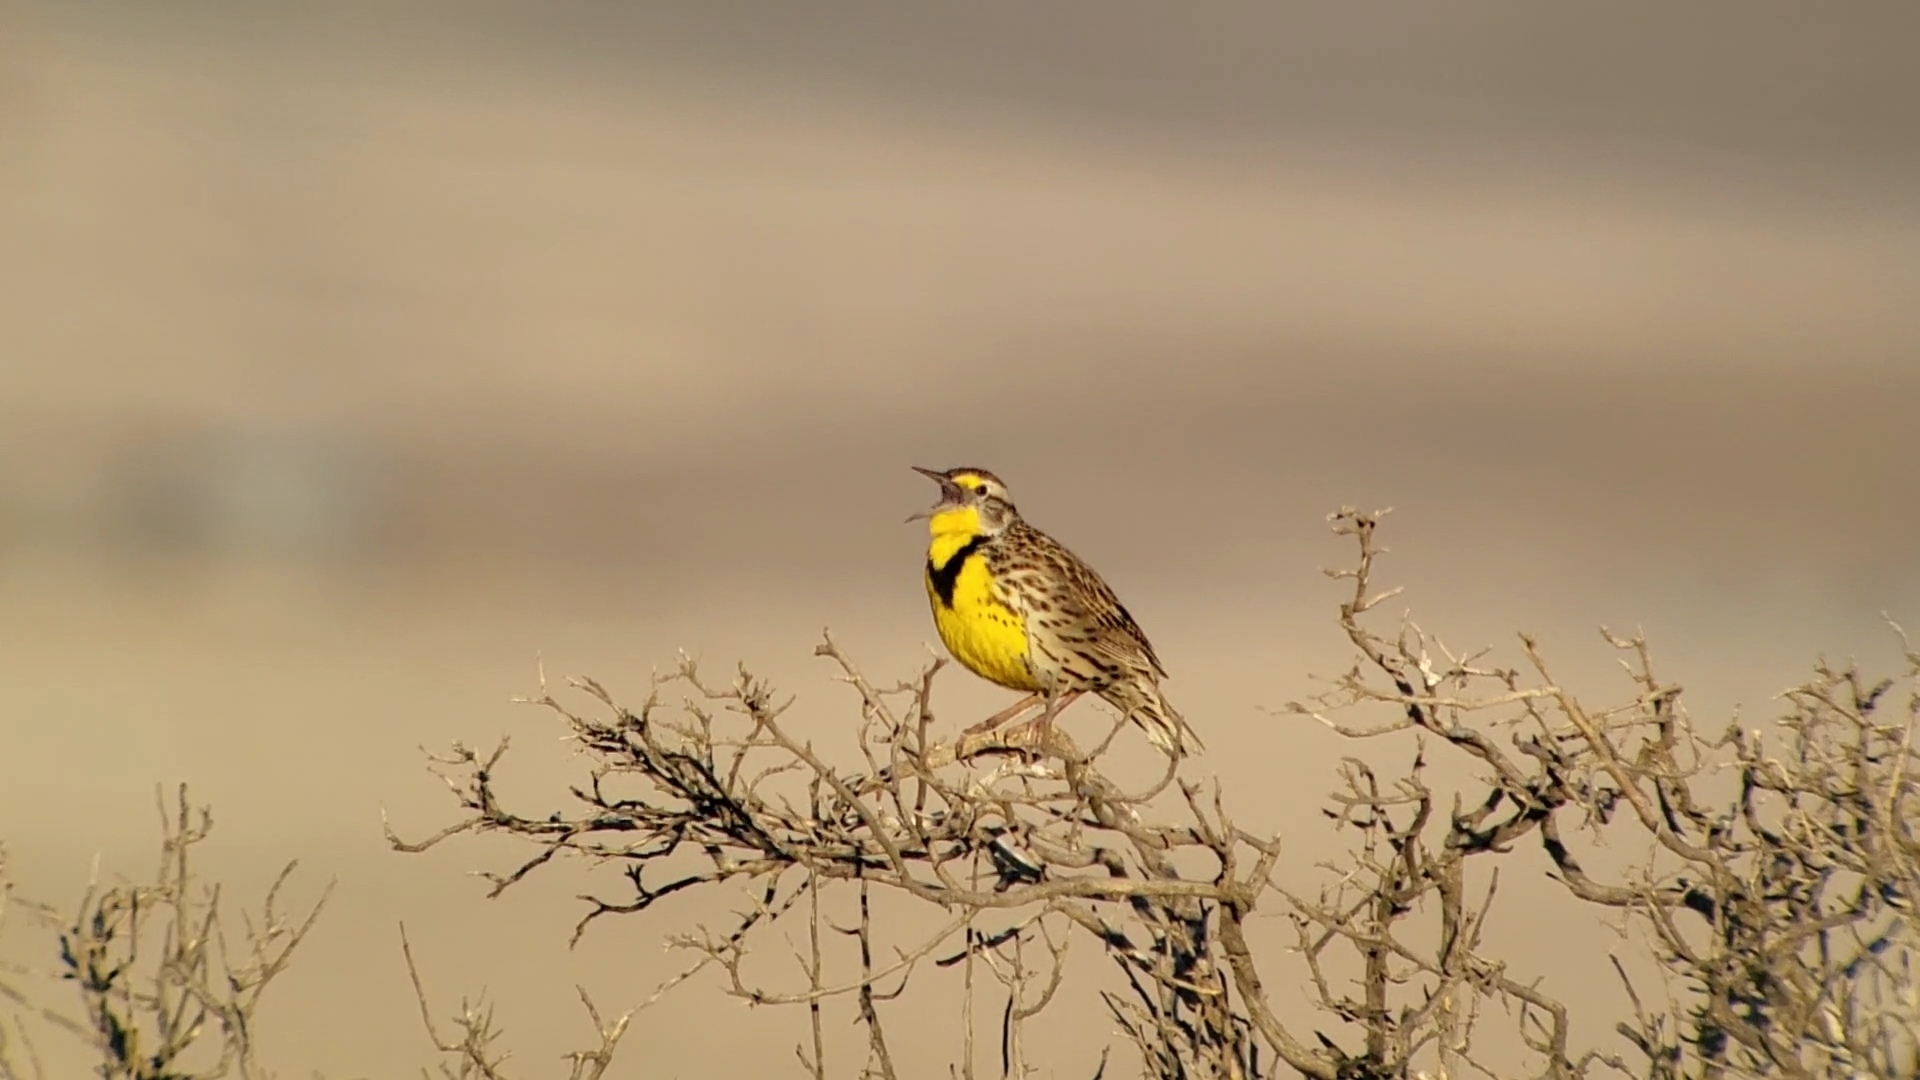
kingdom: Animalia
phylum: Chordata
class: Aves
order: Passeriformes
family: Icteridae
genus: Sturnella
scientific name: Sturnella neglecta
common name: Western meadowlark
